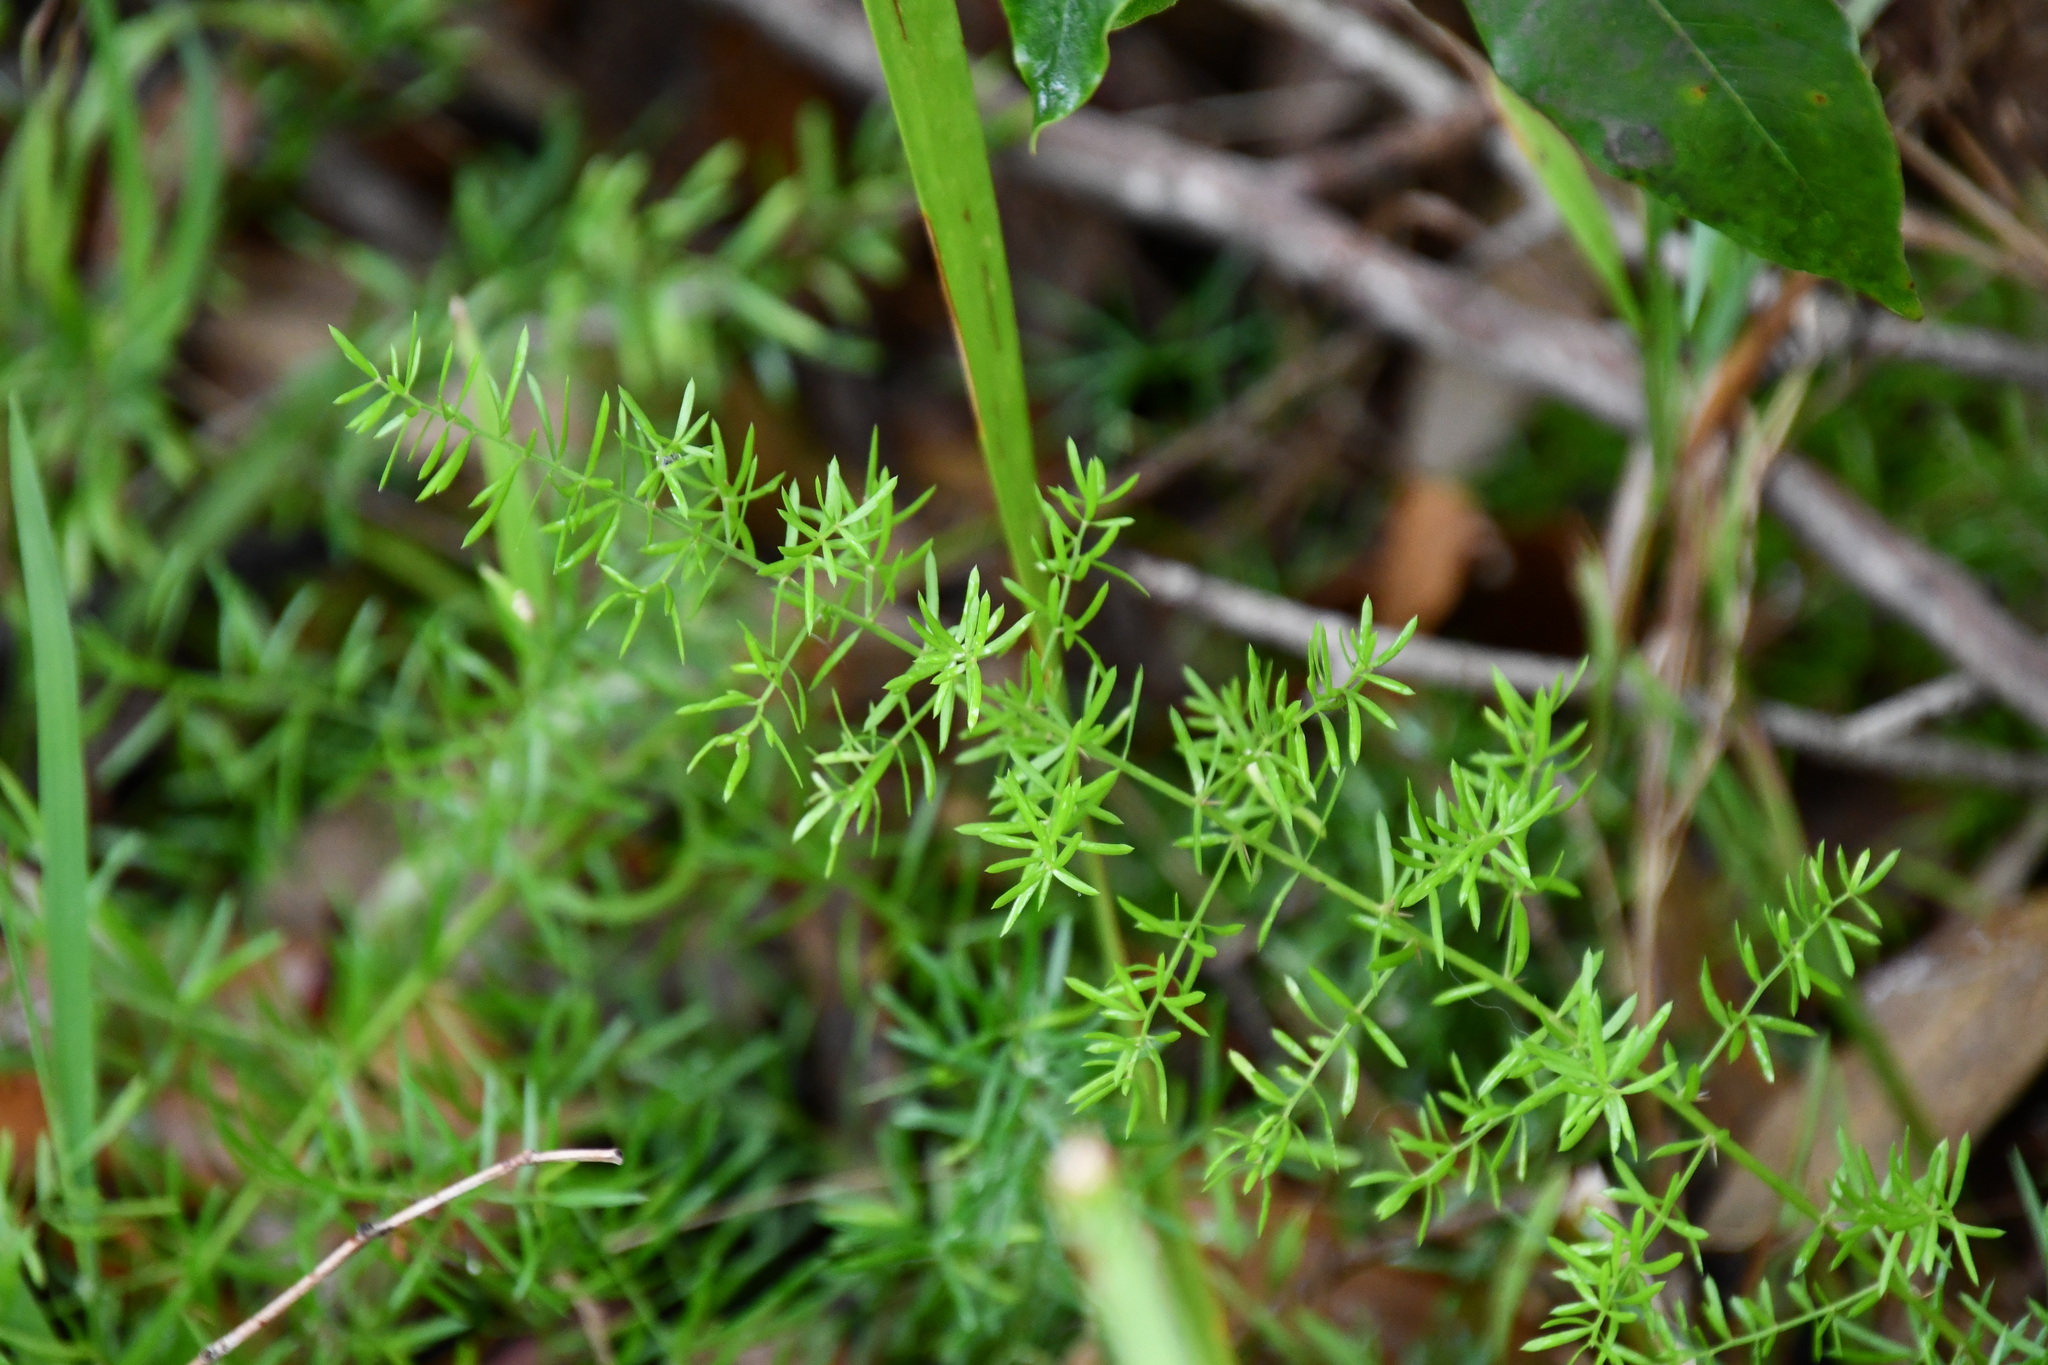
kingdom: Plantae
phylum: Tracheophyta
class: Liliopsida
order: Asparagales
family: Asparagaceae
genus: Asparagus
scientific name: Asparagus aethiopicus
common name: Sprenger's asparagus fern
